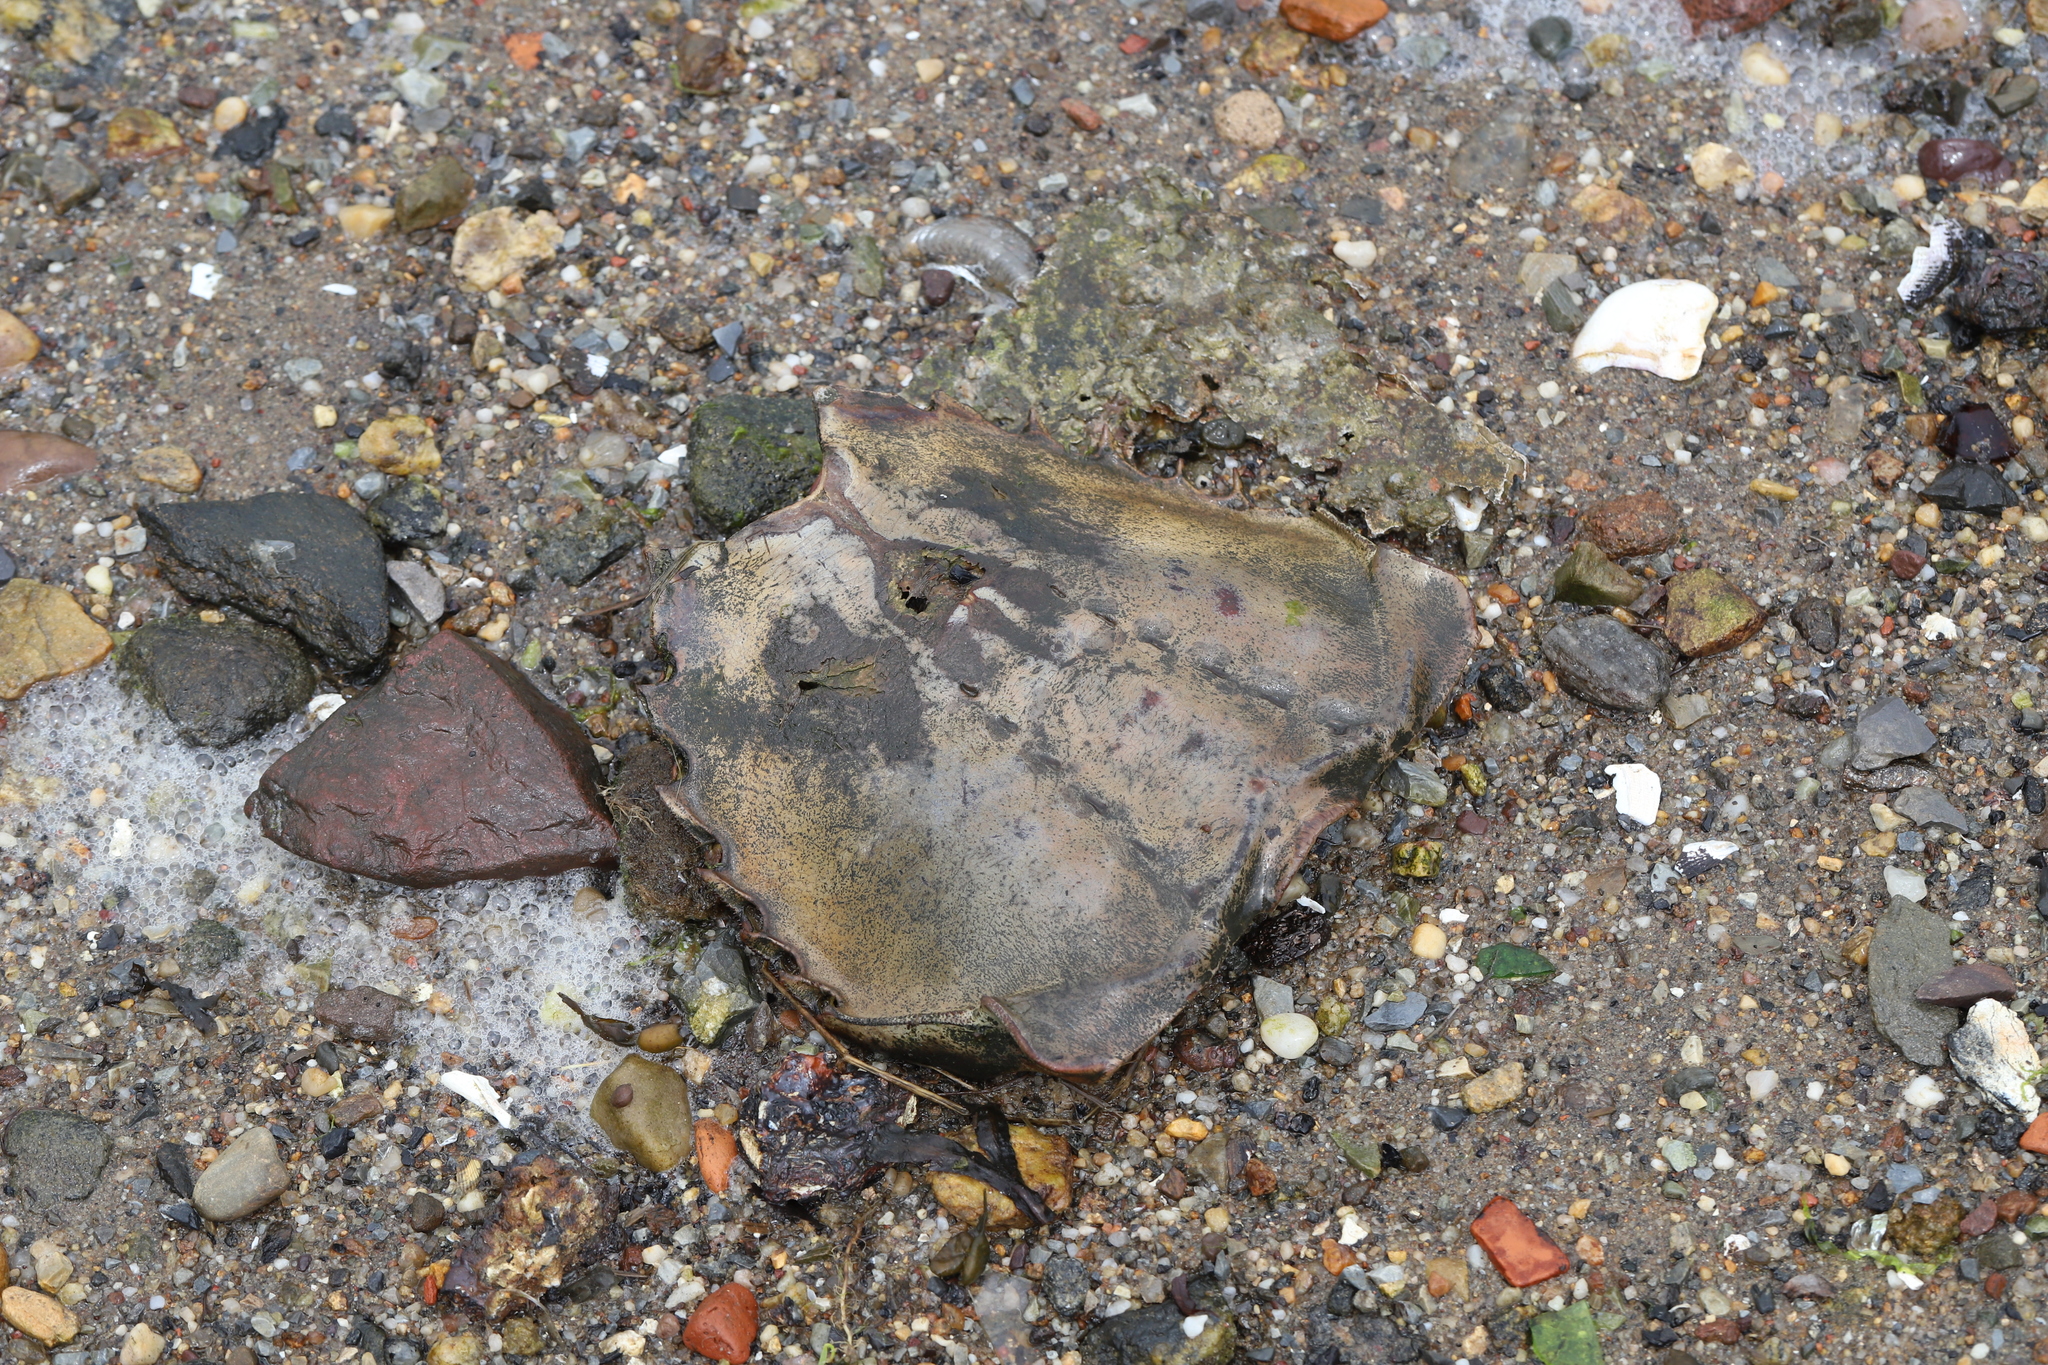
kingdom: Animalia
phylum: Arthropoda
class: Merostomata
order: Xiphosurida
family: Limulidae
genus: Limulus
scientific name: Limulus polyphemus
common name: Horseshoe crab
